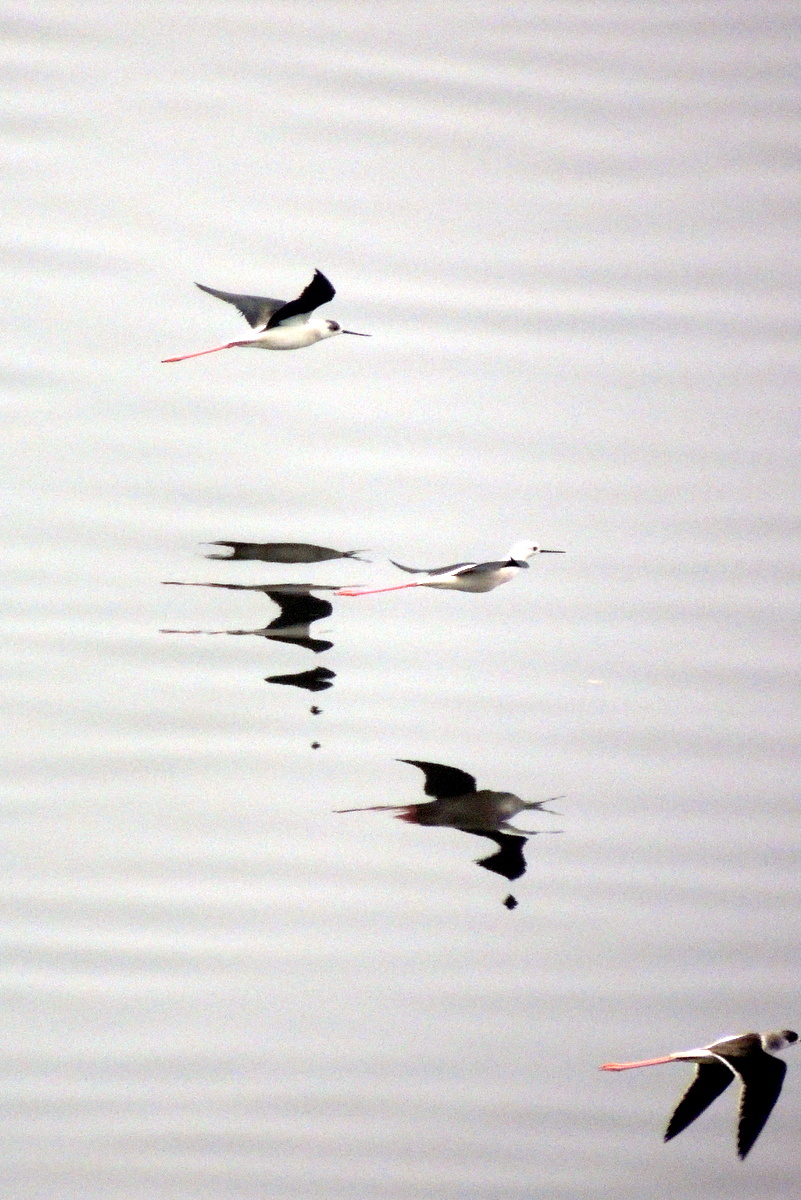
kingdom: Animalia
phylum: Chordata
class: Aves
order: Charadriiformes
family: Recurvirostridae
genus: Himantopus
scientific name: Himantopus himantopus
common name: Black-winged stilt
